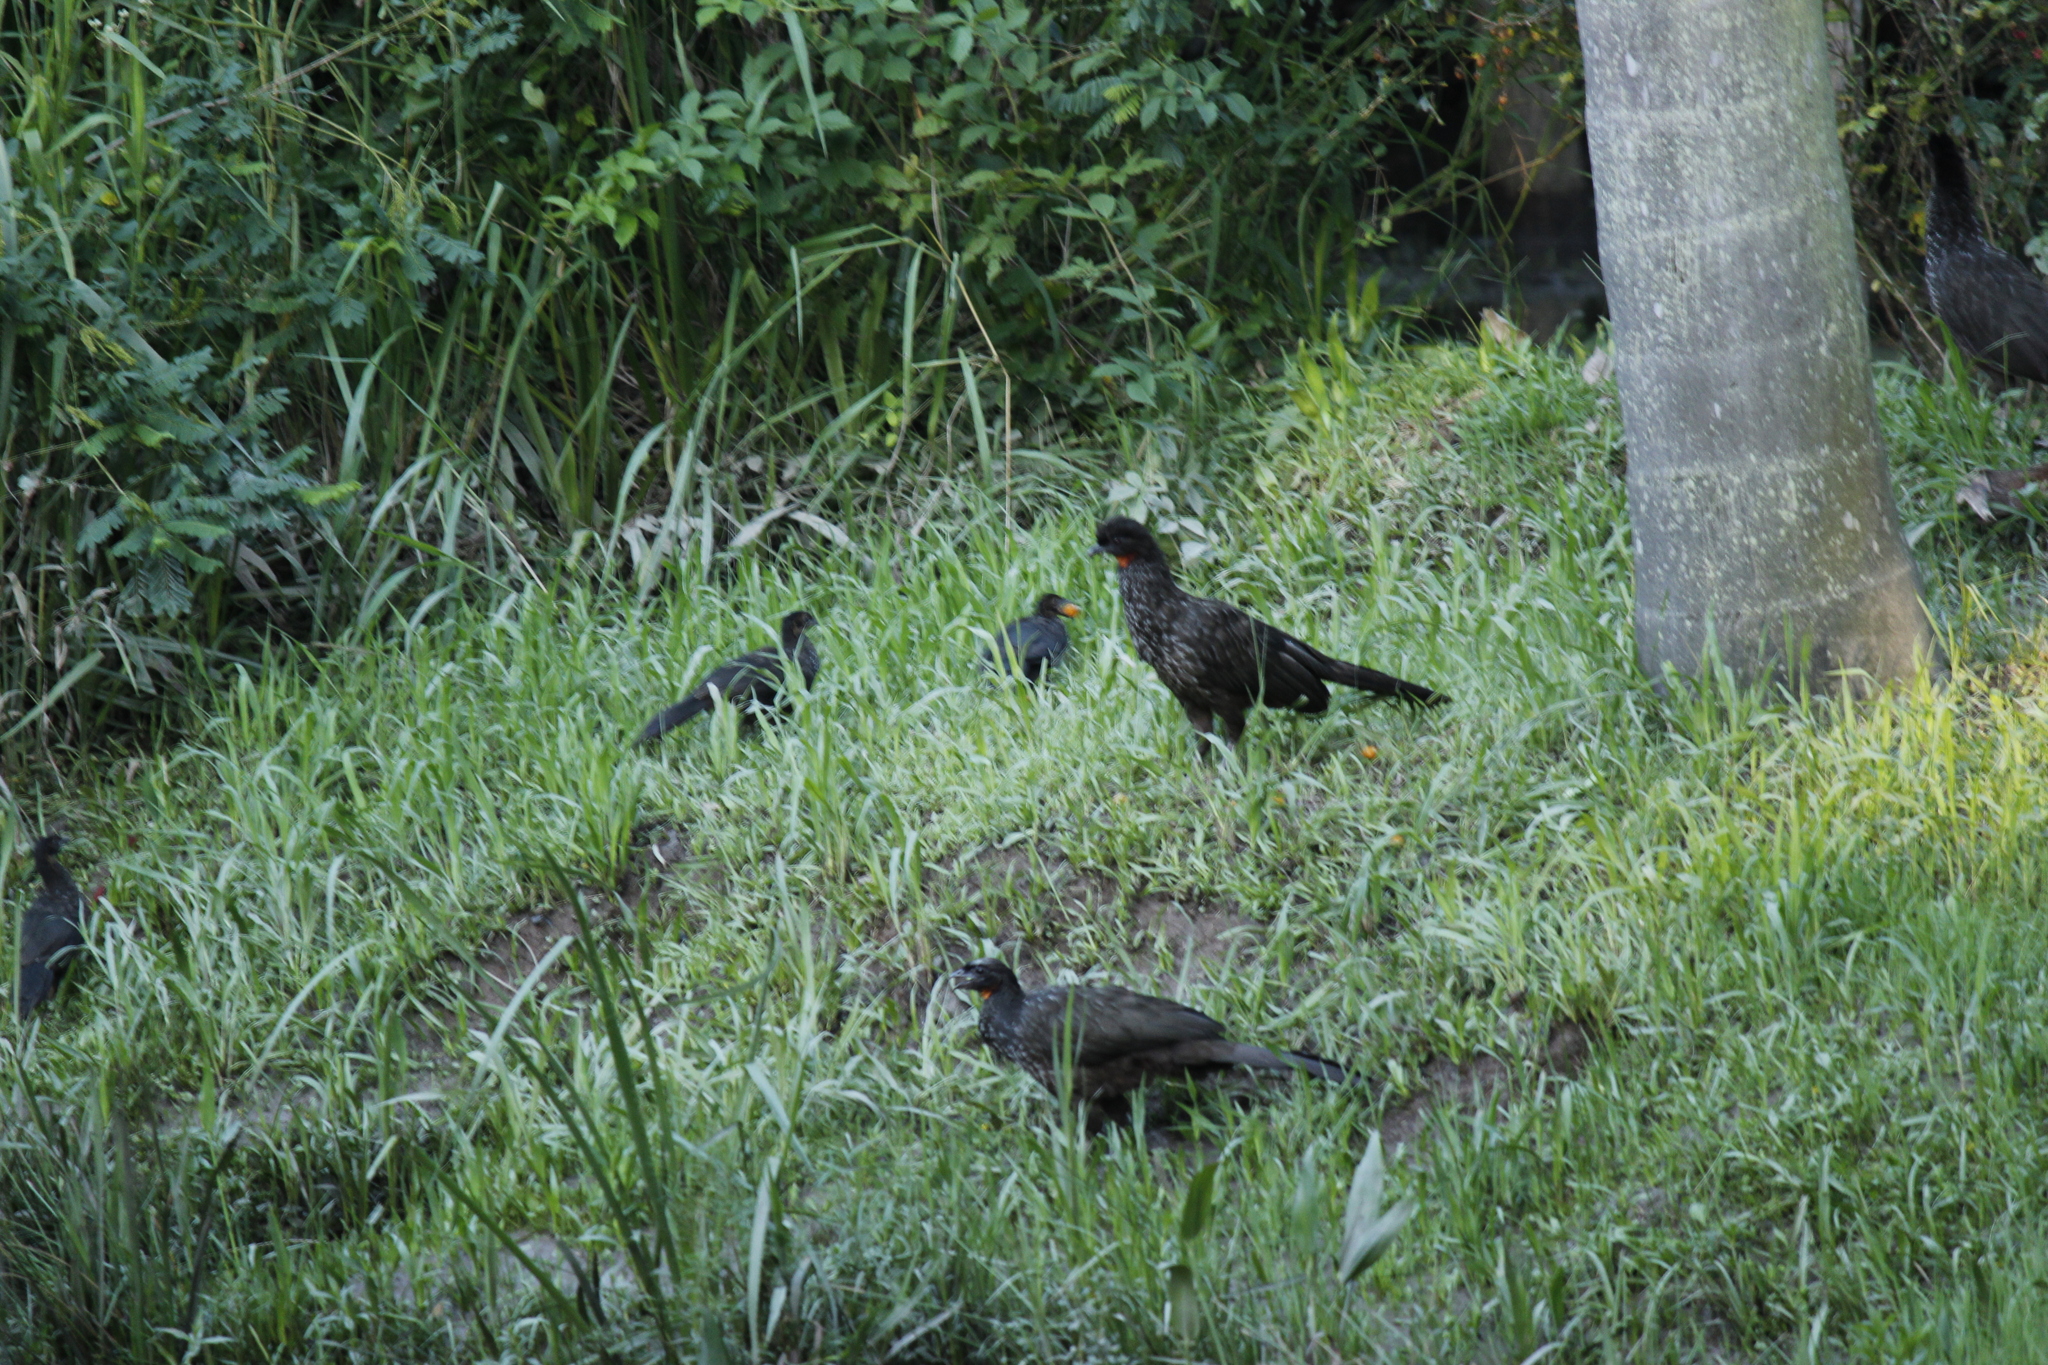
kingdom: Animalia
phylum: Chordata
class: Aves
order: Galliformes
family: Cracidae
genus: Penelope
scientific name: Penelope obscura
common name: Dusky-legged guan
